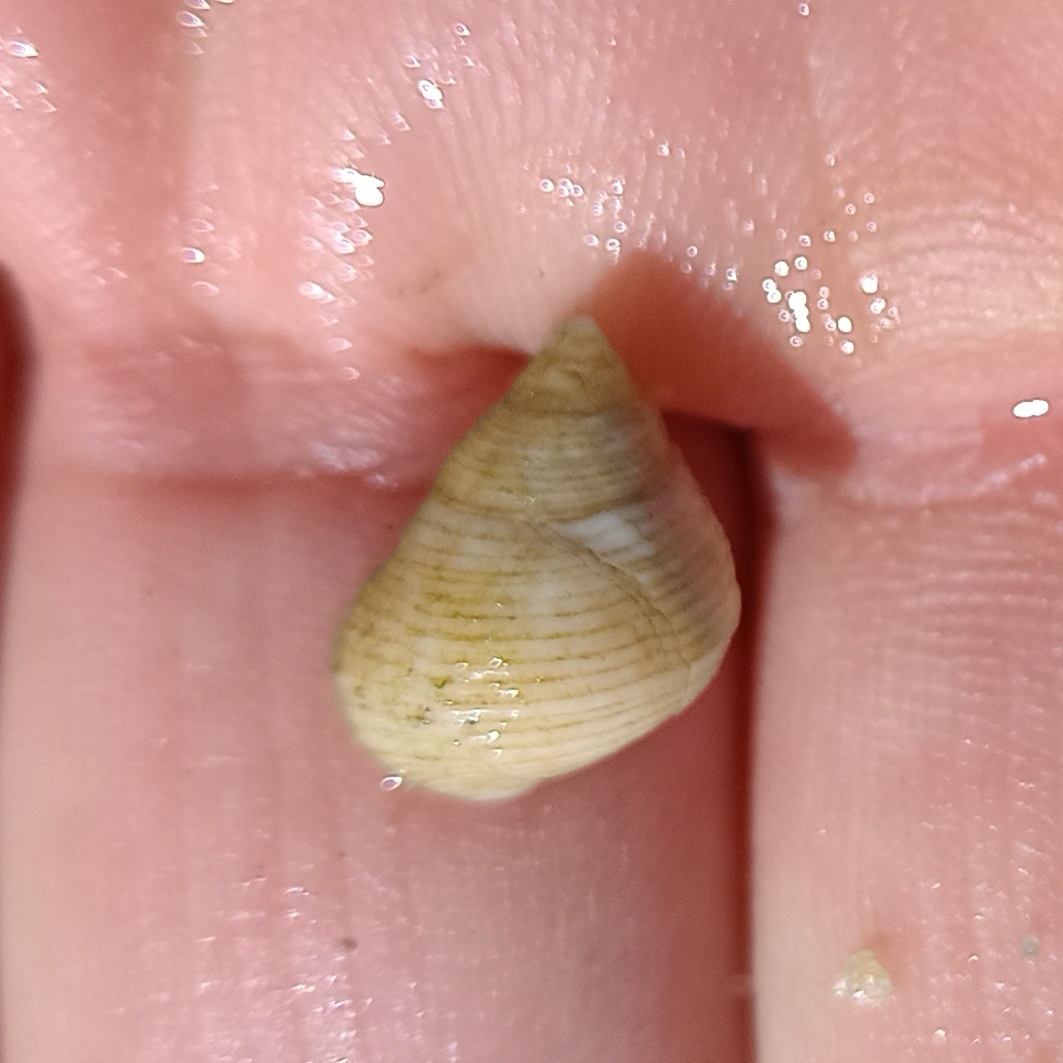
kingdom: Animalia
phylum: Mollusca
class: Gastropoda
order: Littorinimorpha
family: Littorinidae
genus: Littoraria
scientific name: Littoraria flava
